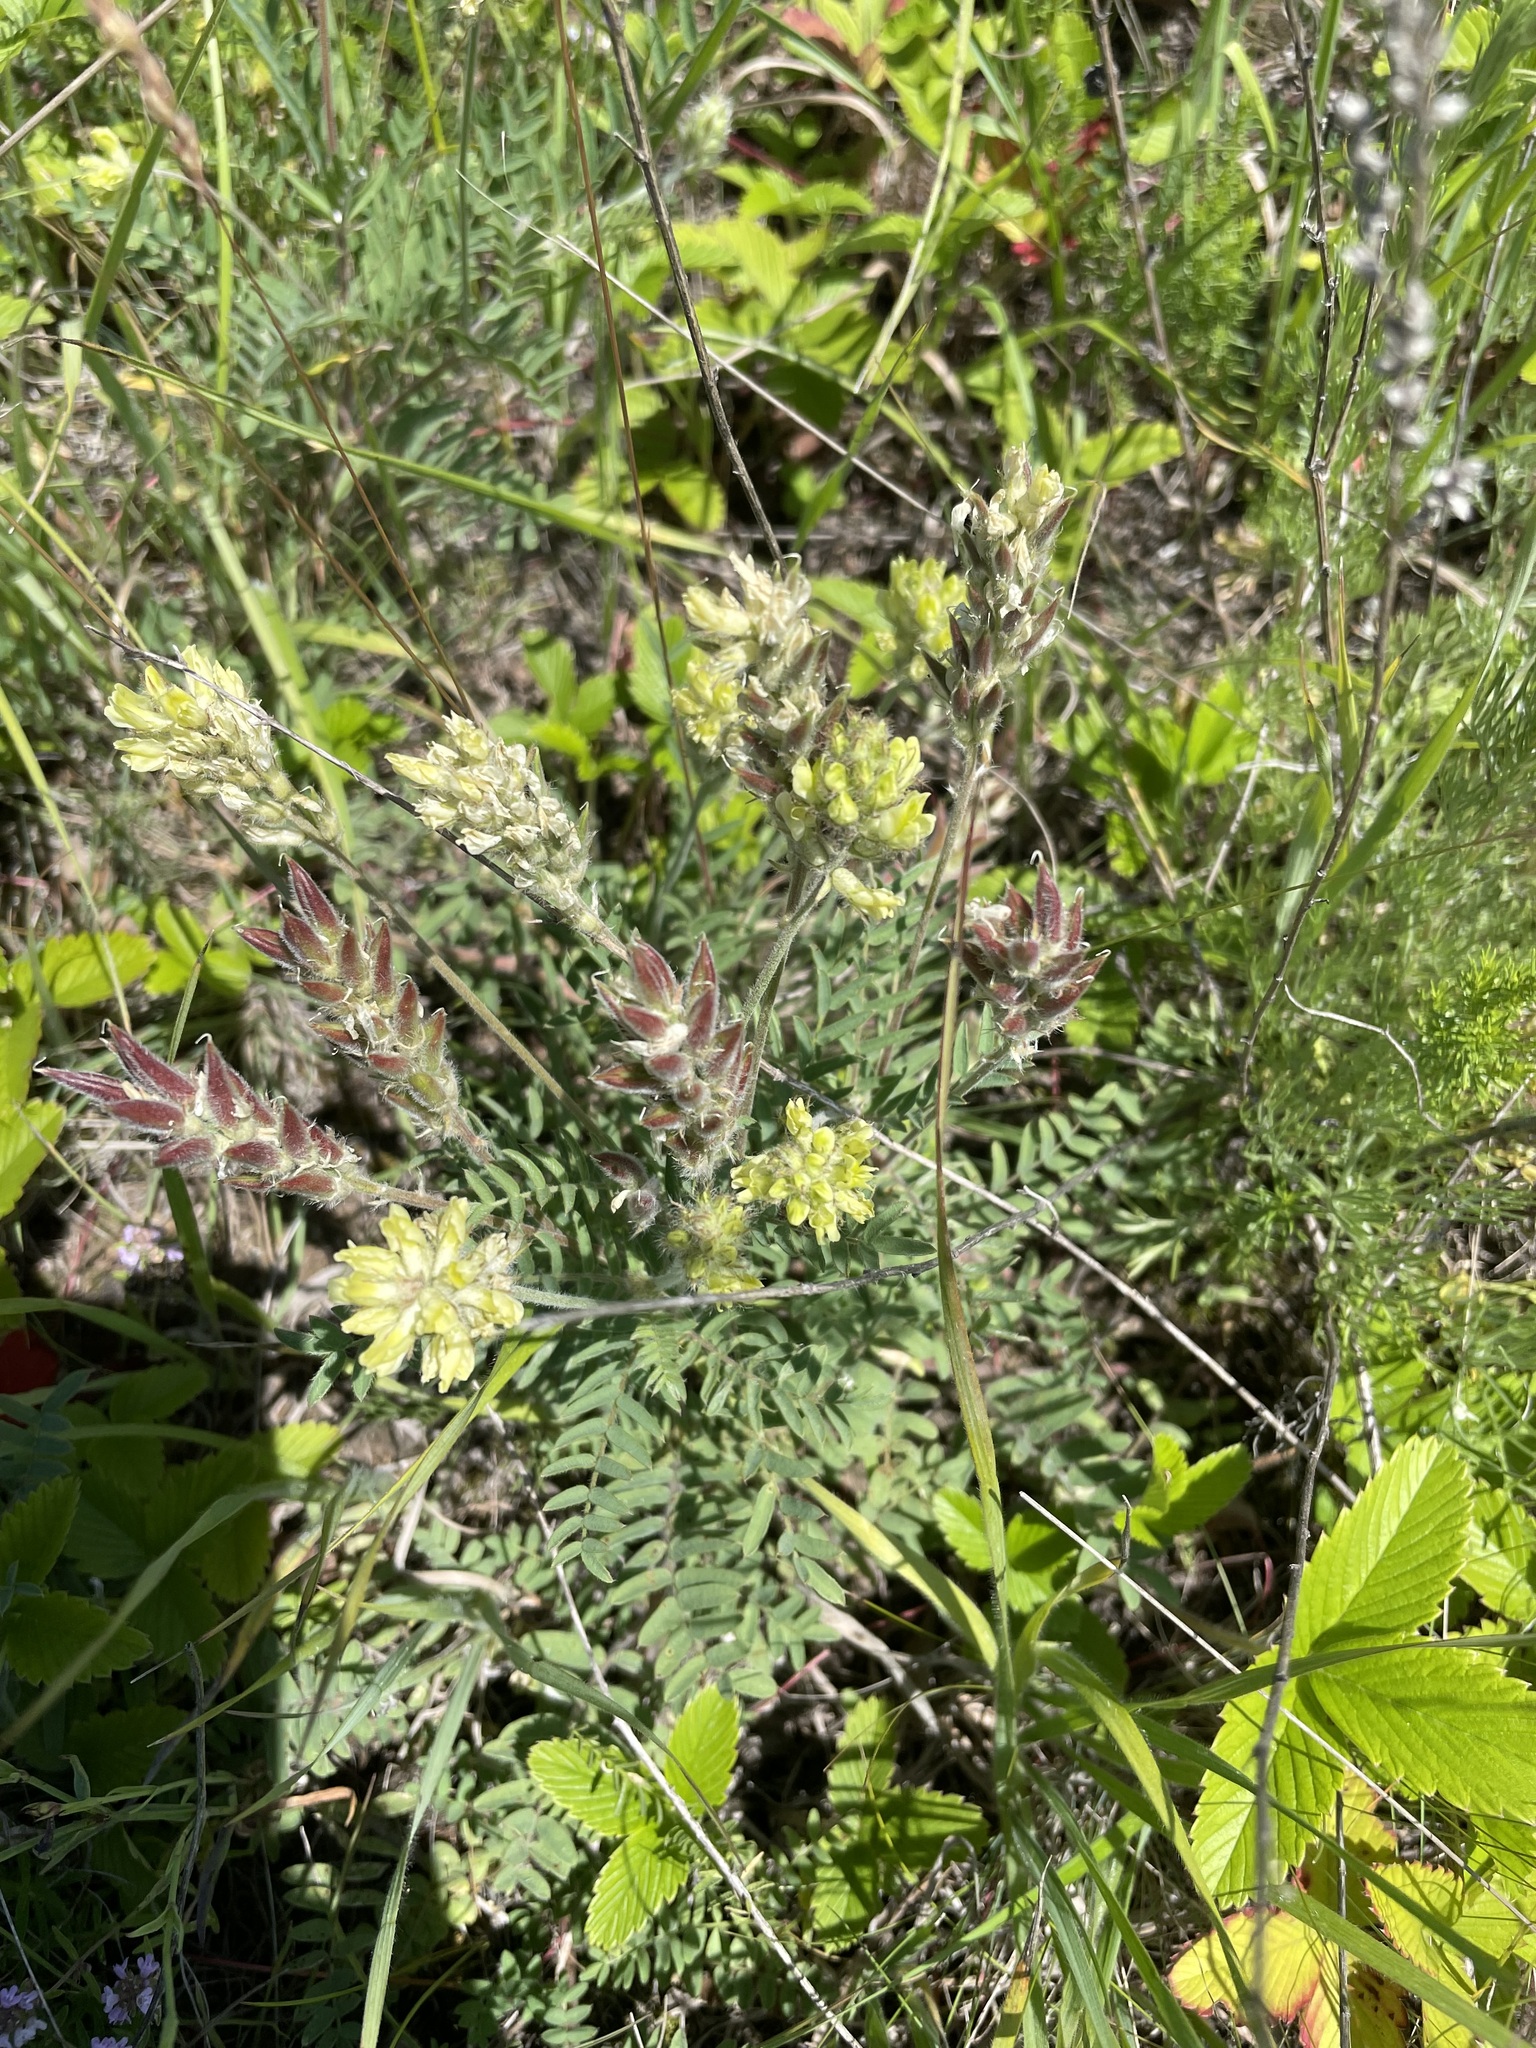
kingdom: Plantae
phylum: Tracheophyta
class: Magnoliopsida
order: Fabales
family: Fabaceae
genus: Oxytropis
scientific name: Oxytropis pilosa
